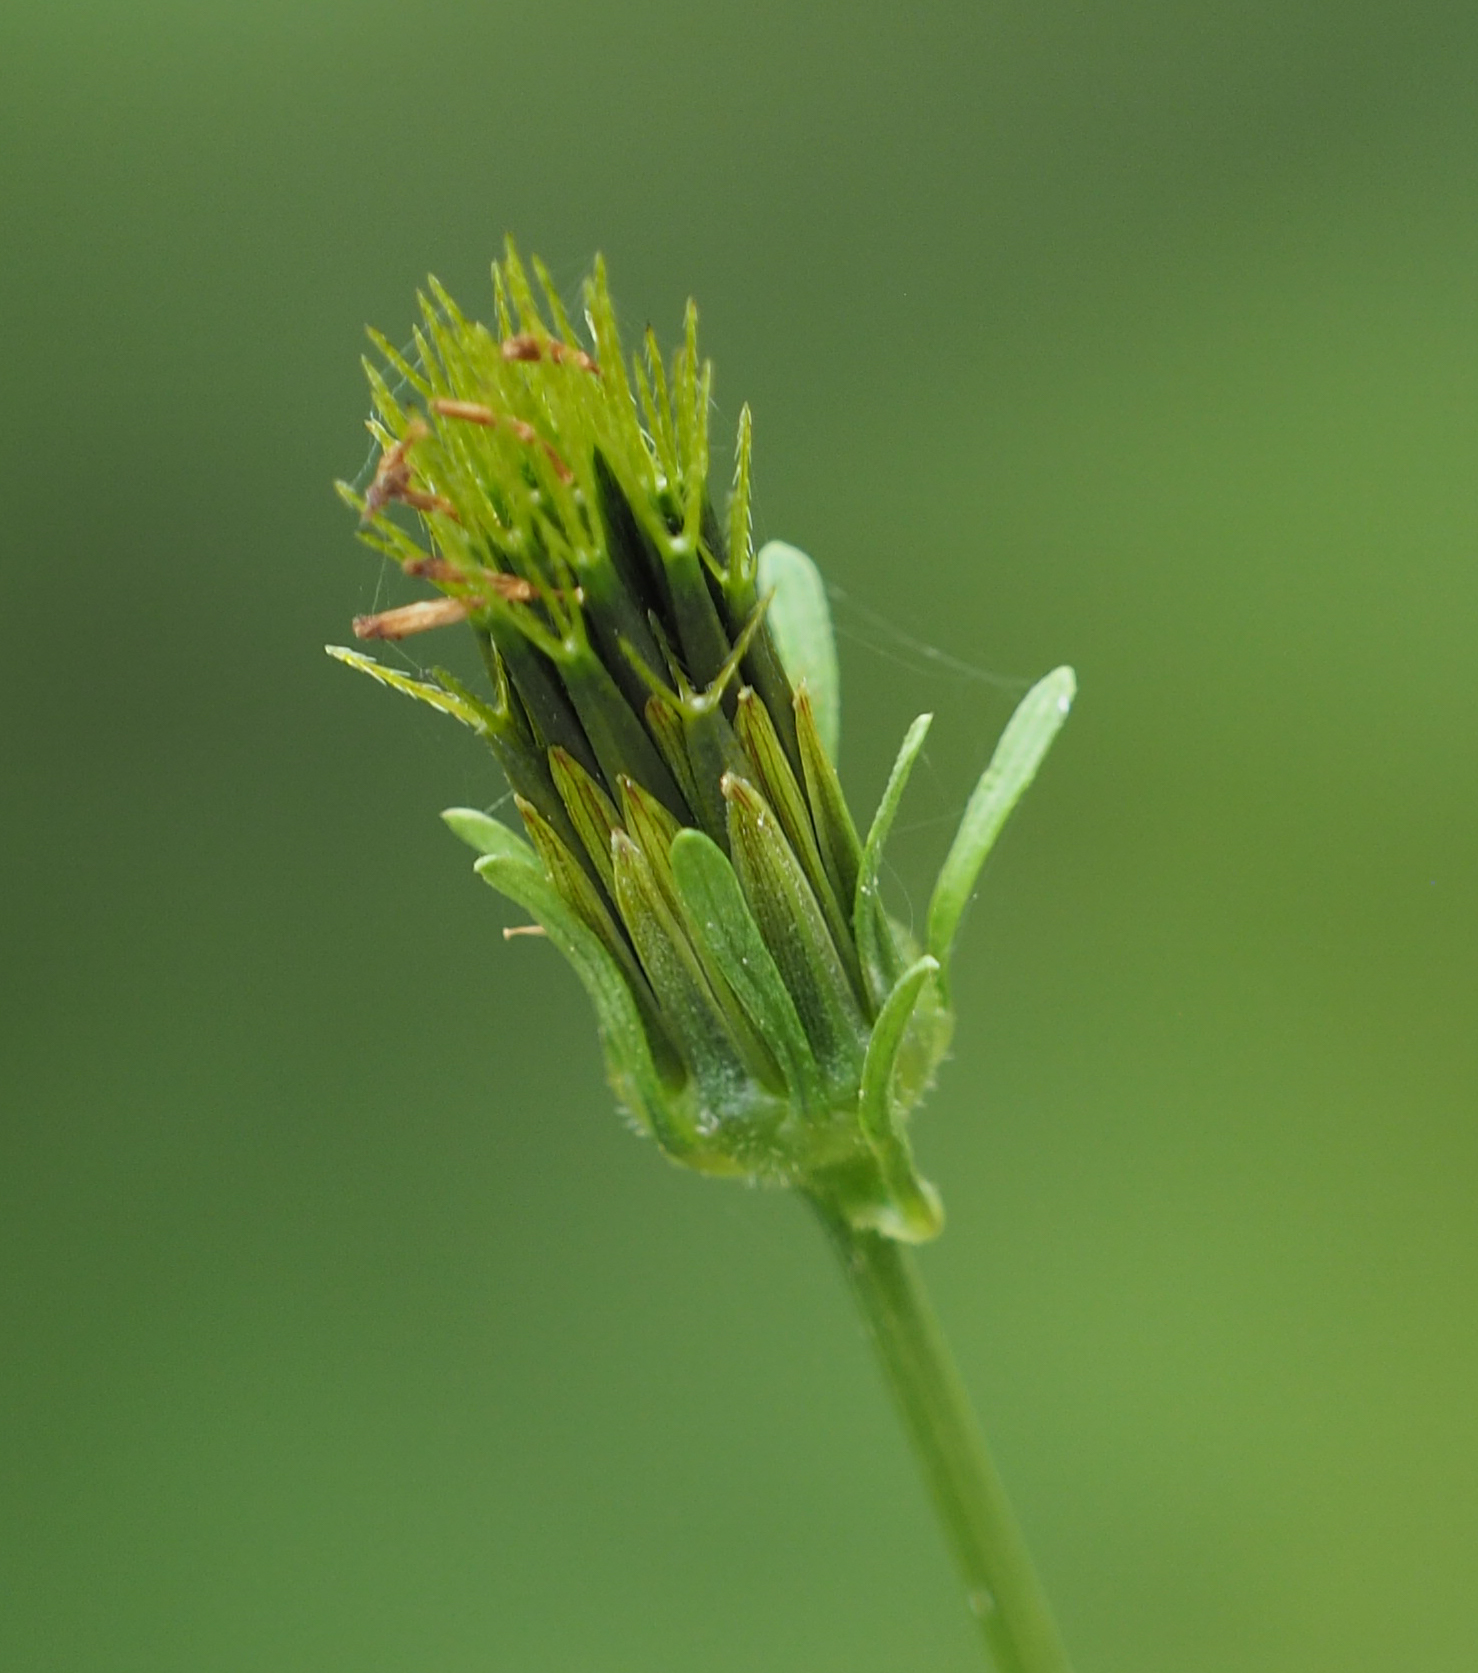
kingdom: Plantae
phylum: Tracheophyta
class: Magnoliopsida
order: Asterales
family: Asteraceae
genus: Bidens
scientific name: Bidens bipinnata
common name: Spanish-needles
